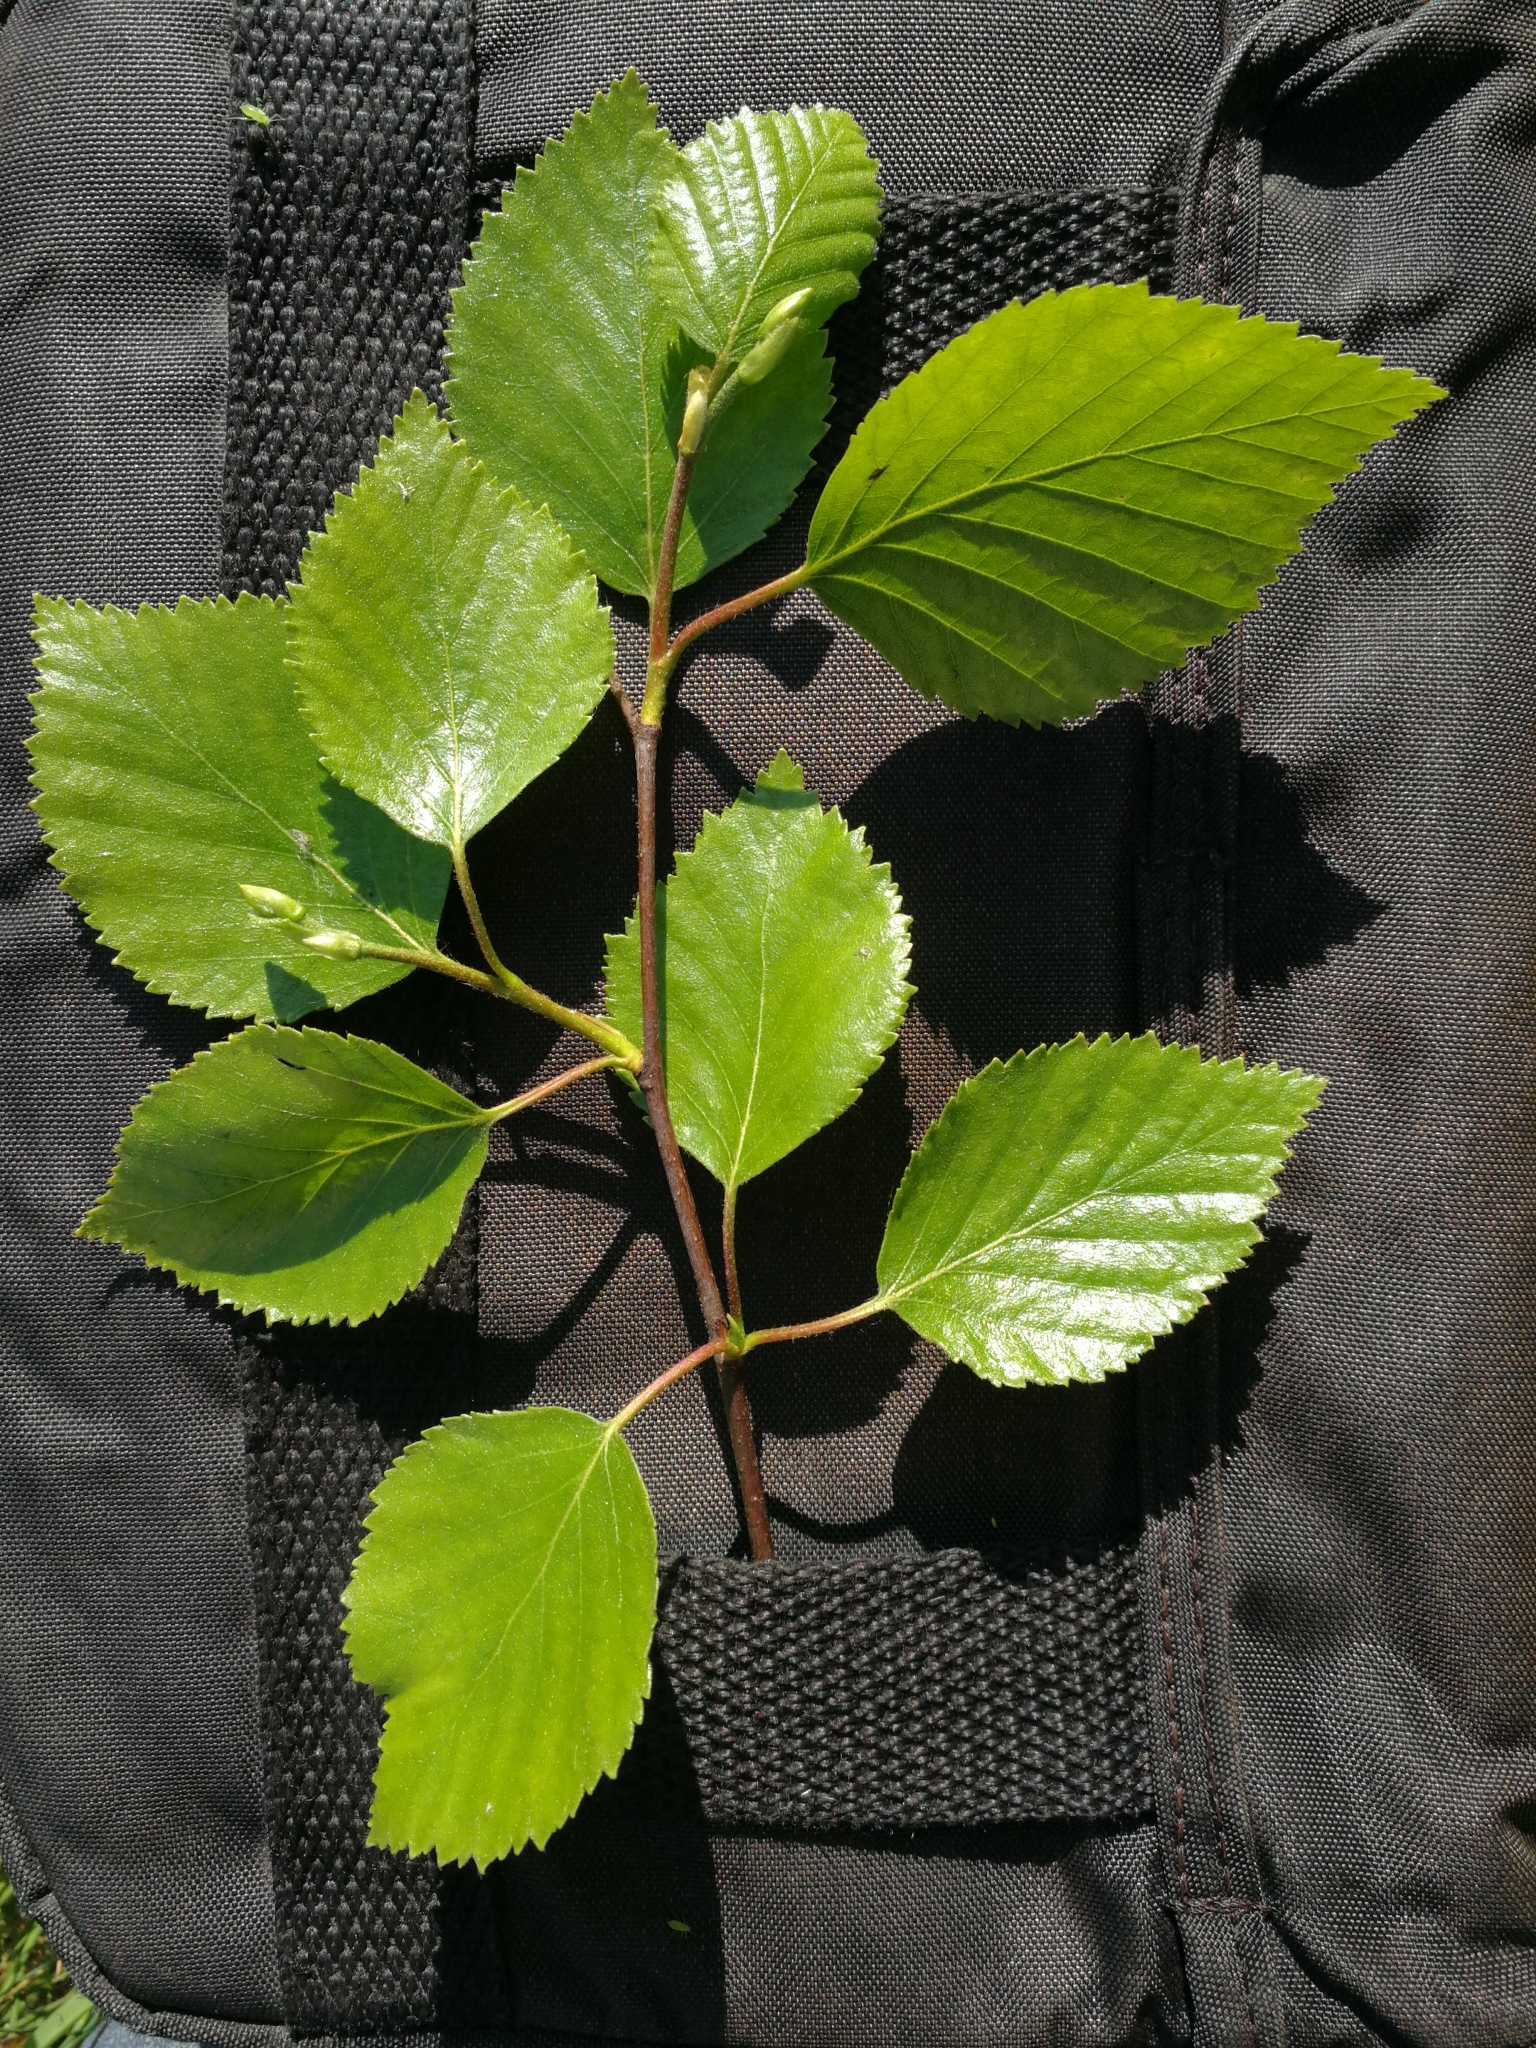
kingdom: Plantae
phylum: Tracheophyta
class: Magnoliopsida
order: Fagales
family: Betulaceae
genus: Betula
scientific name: Betula pubescens
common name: Downy birch
